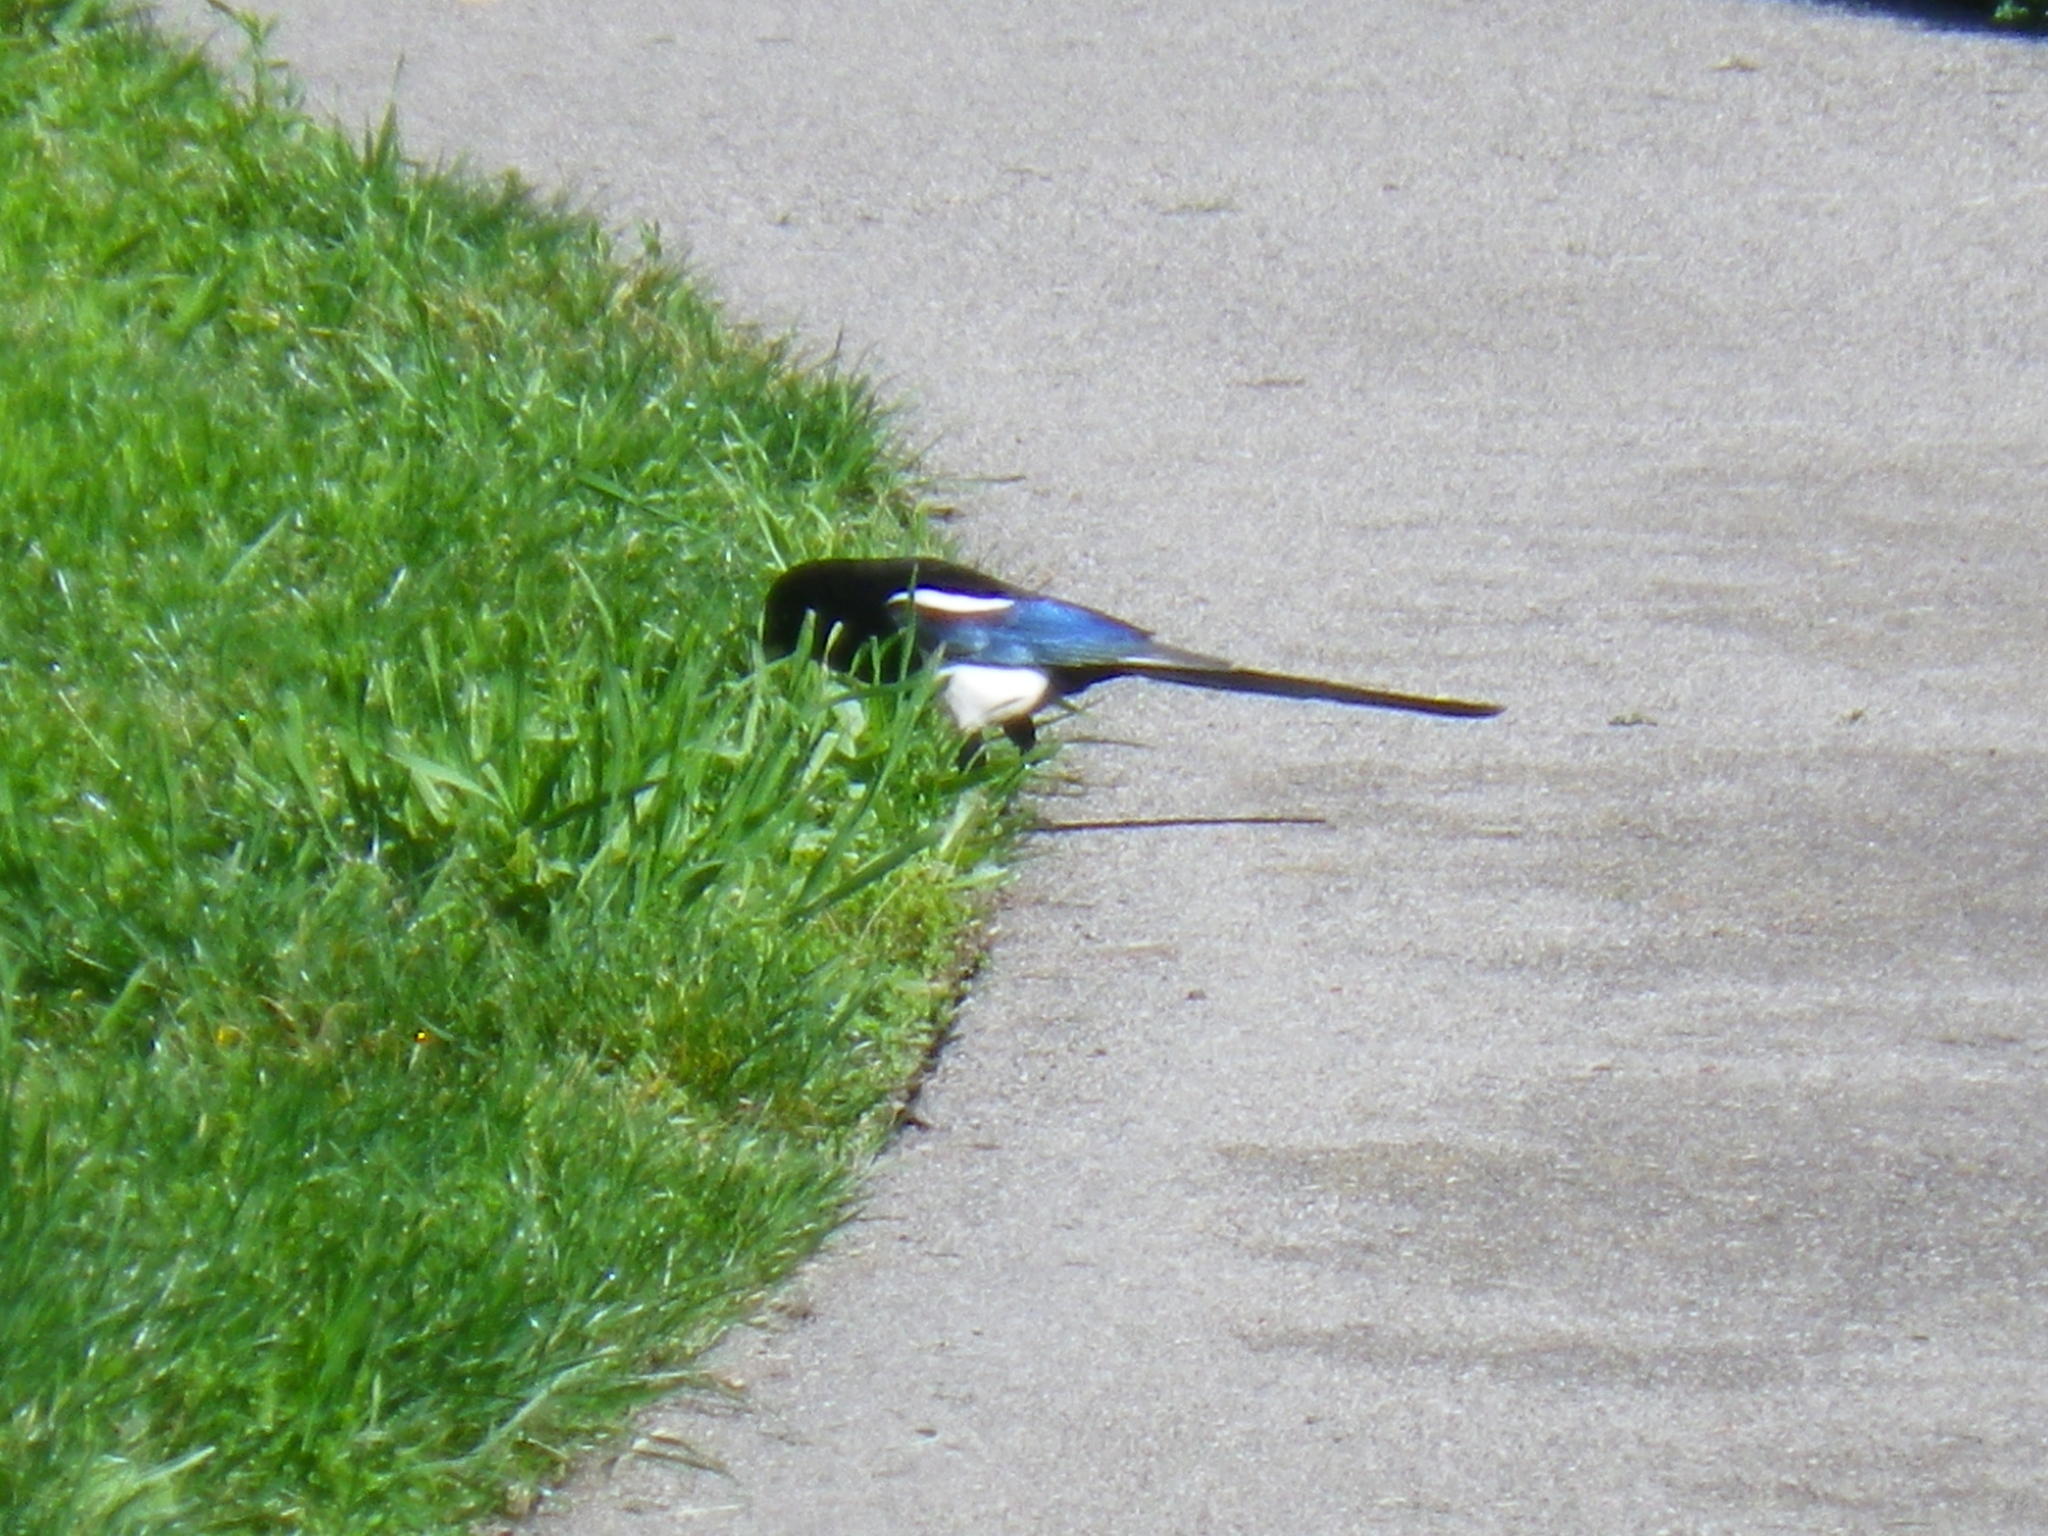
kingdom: Animalia
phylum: Chordata
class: Aves
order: Passeriformes
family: Corvidae
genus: Pica
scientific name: Pica nuttalli
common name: Yellow-billed magpie
